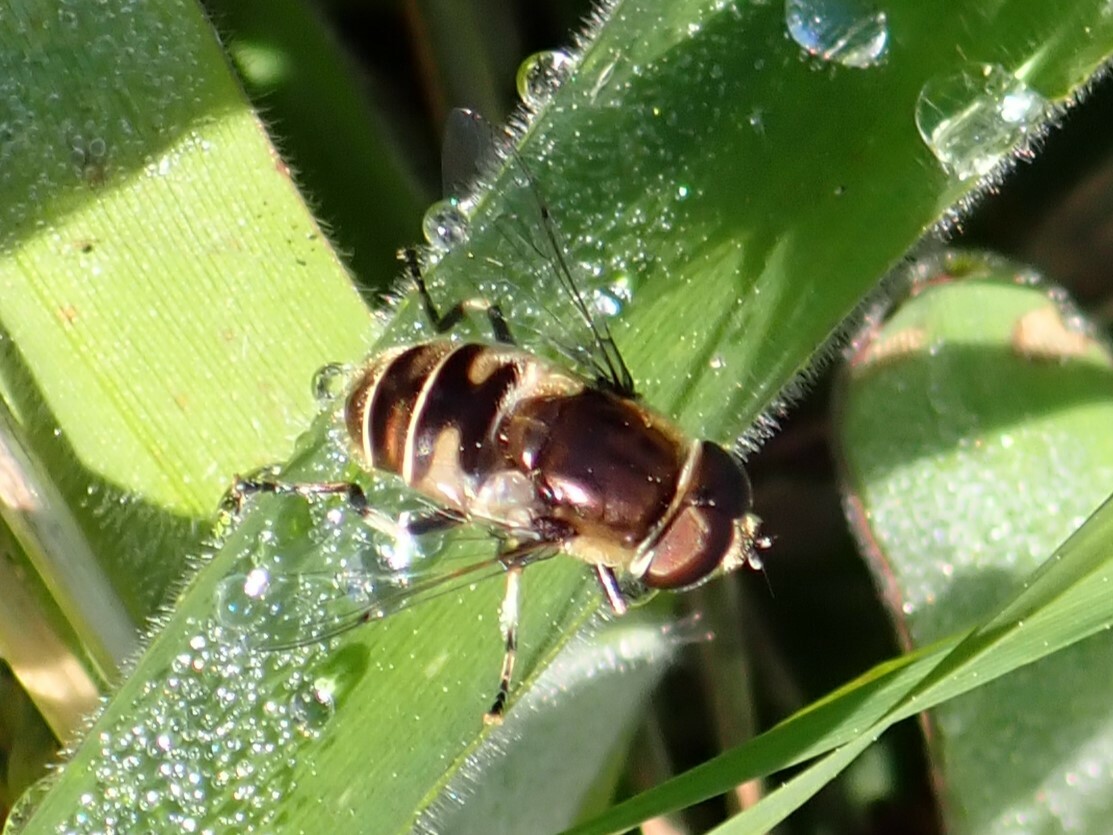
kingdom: Animalia
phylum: Arthropoda
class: Insecta
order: Diptera
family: Syrphidae
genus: Eristalis
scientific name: Eristalis dimidiata
